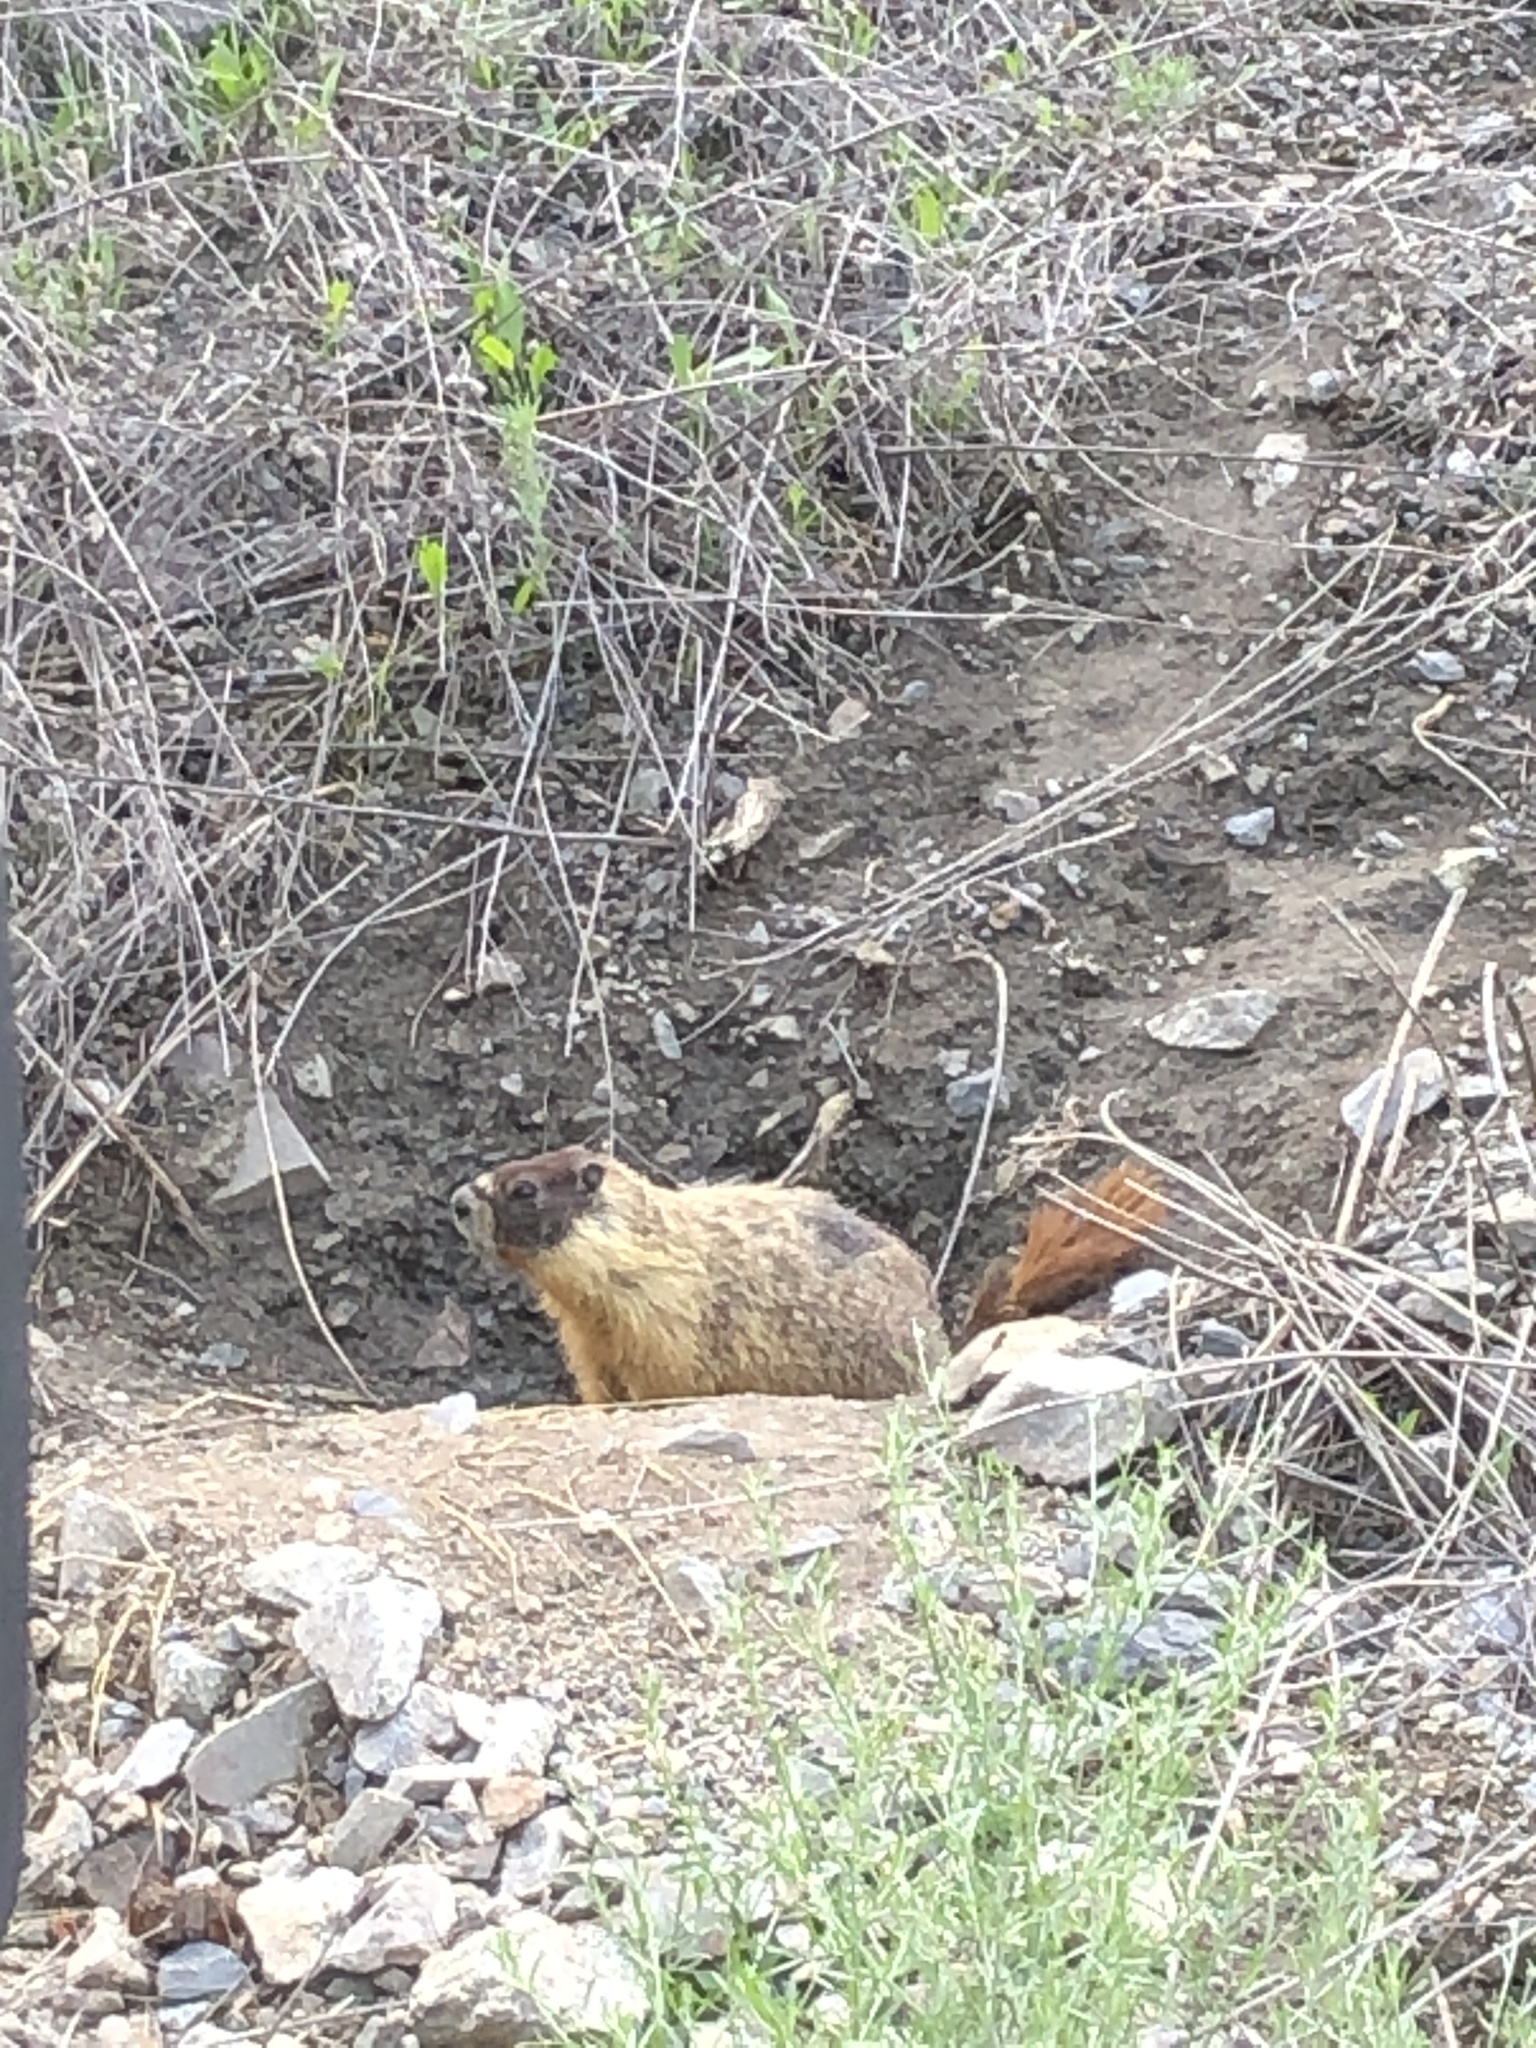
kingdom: Animalia
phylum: Chordata
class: Mammalia
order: Rodentia
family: Sciuridae
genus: Marmota
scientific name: Marmota flaviventris
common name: Yellow-bellied marmot
